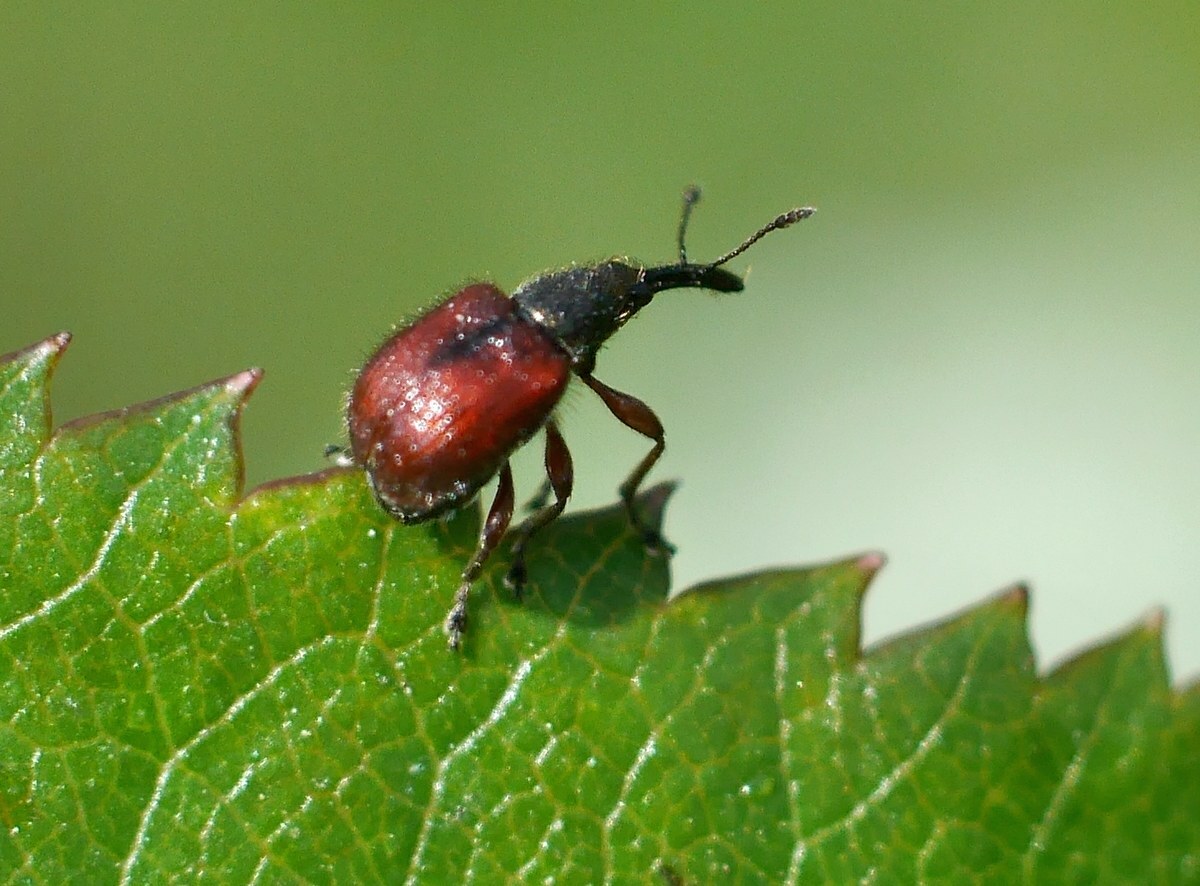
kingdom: Animalia
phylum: Arthropoda
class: Insecta
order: Coleoptera
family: Rhynchitidae
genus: Tatianaerhynchites
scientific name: Tatianaerhynchites aequatus
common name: Apple fruit rhynchites
